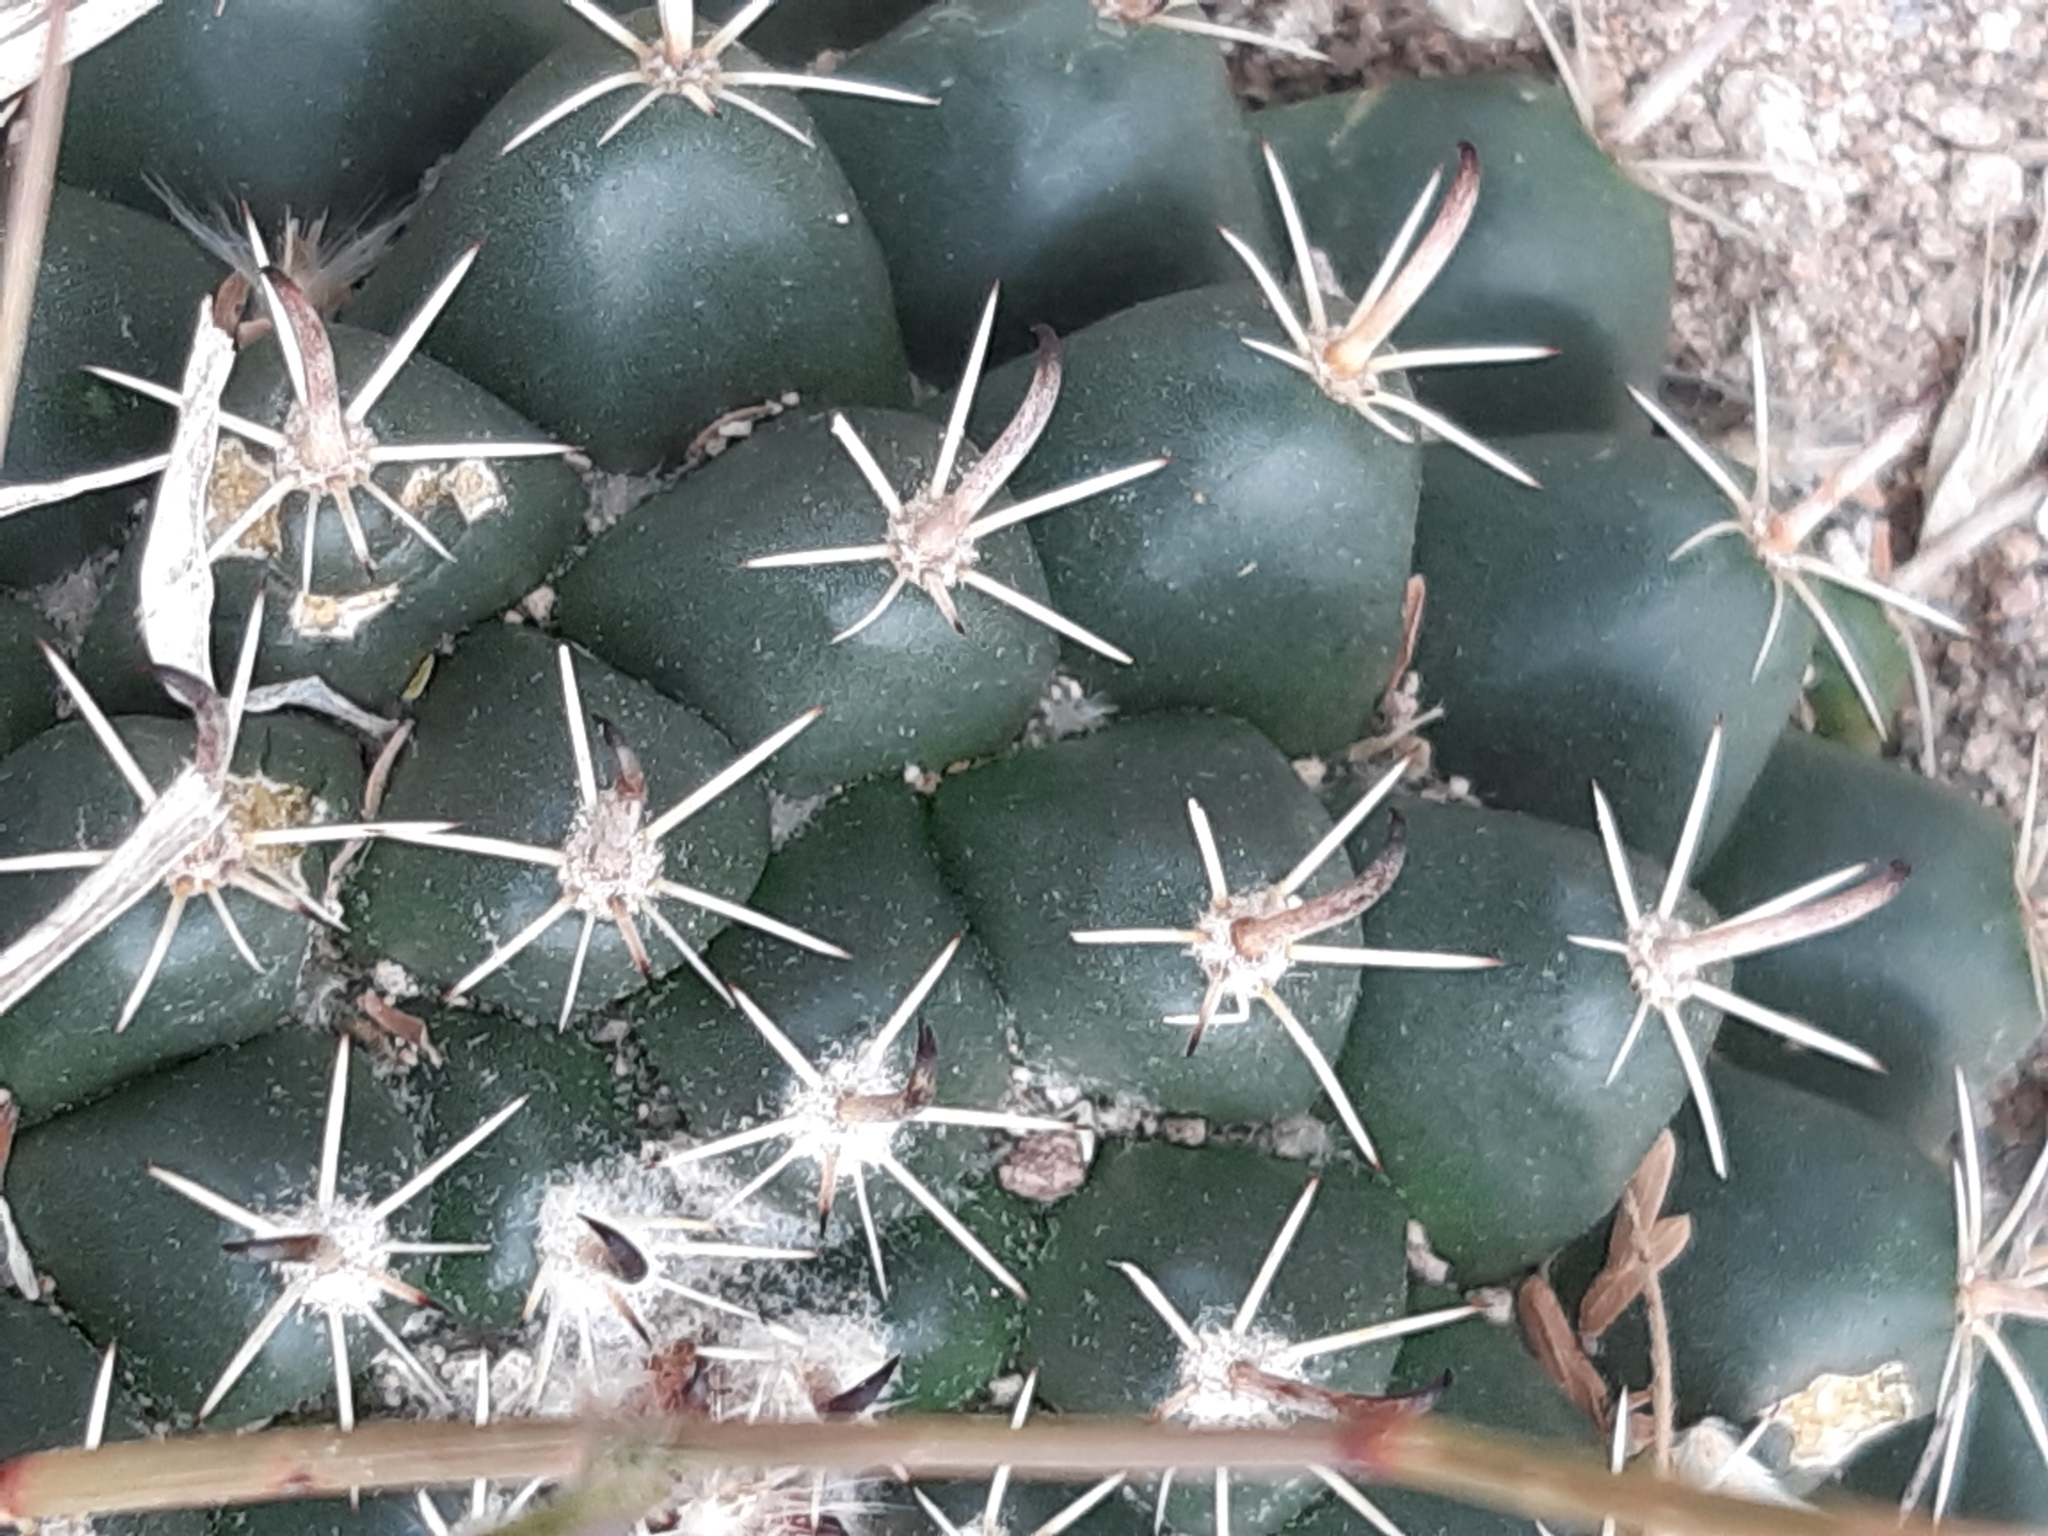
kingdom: Plantae
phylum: Tracheophyta
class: Magnoliopsida
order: Caryophyllales
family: Cactaceae
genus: Mammillaria
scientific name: Mammillaria uncinata
